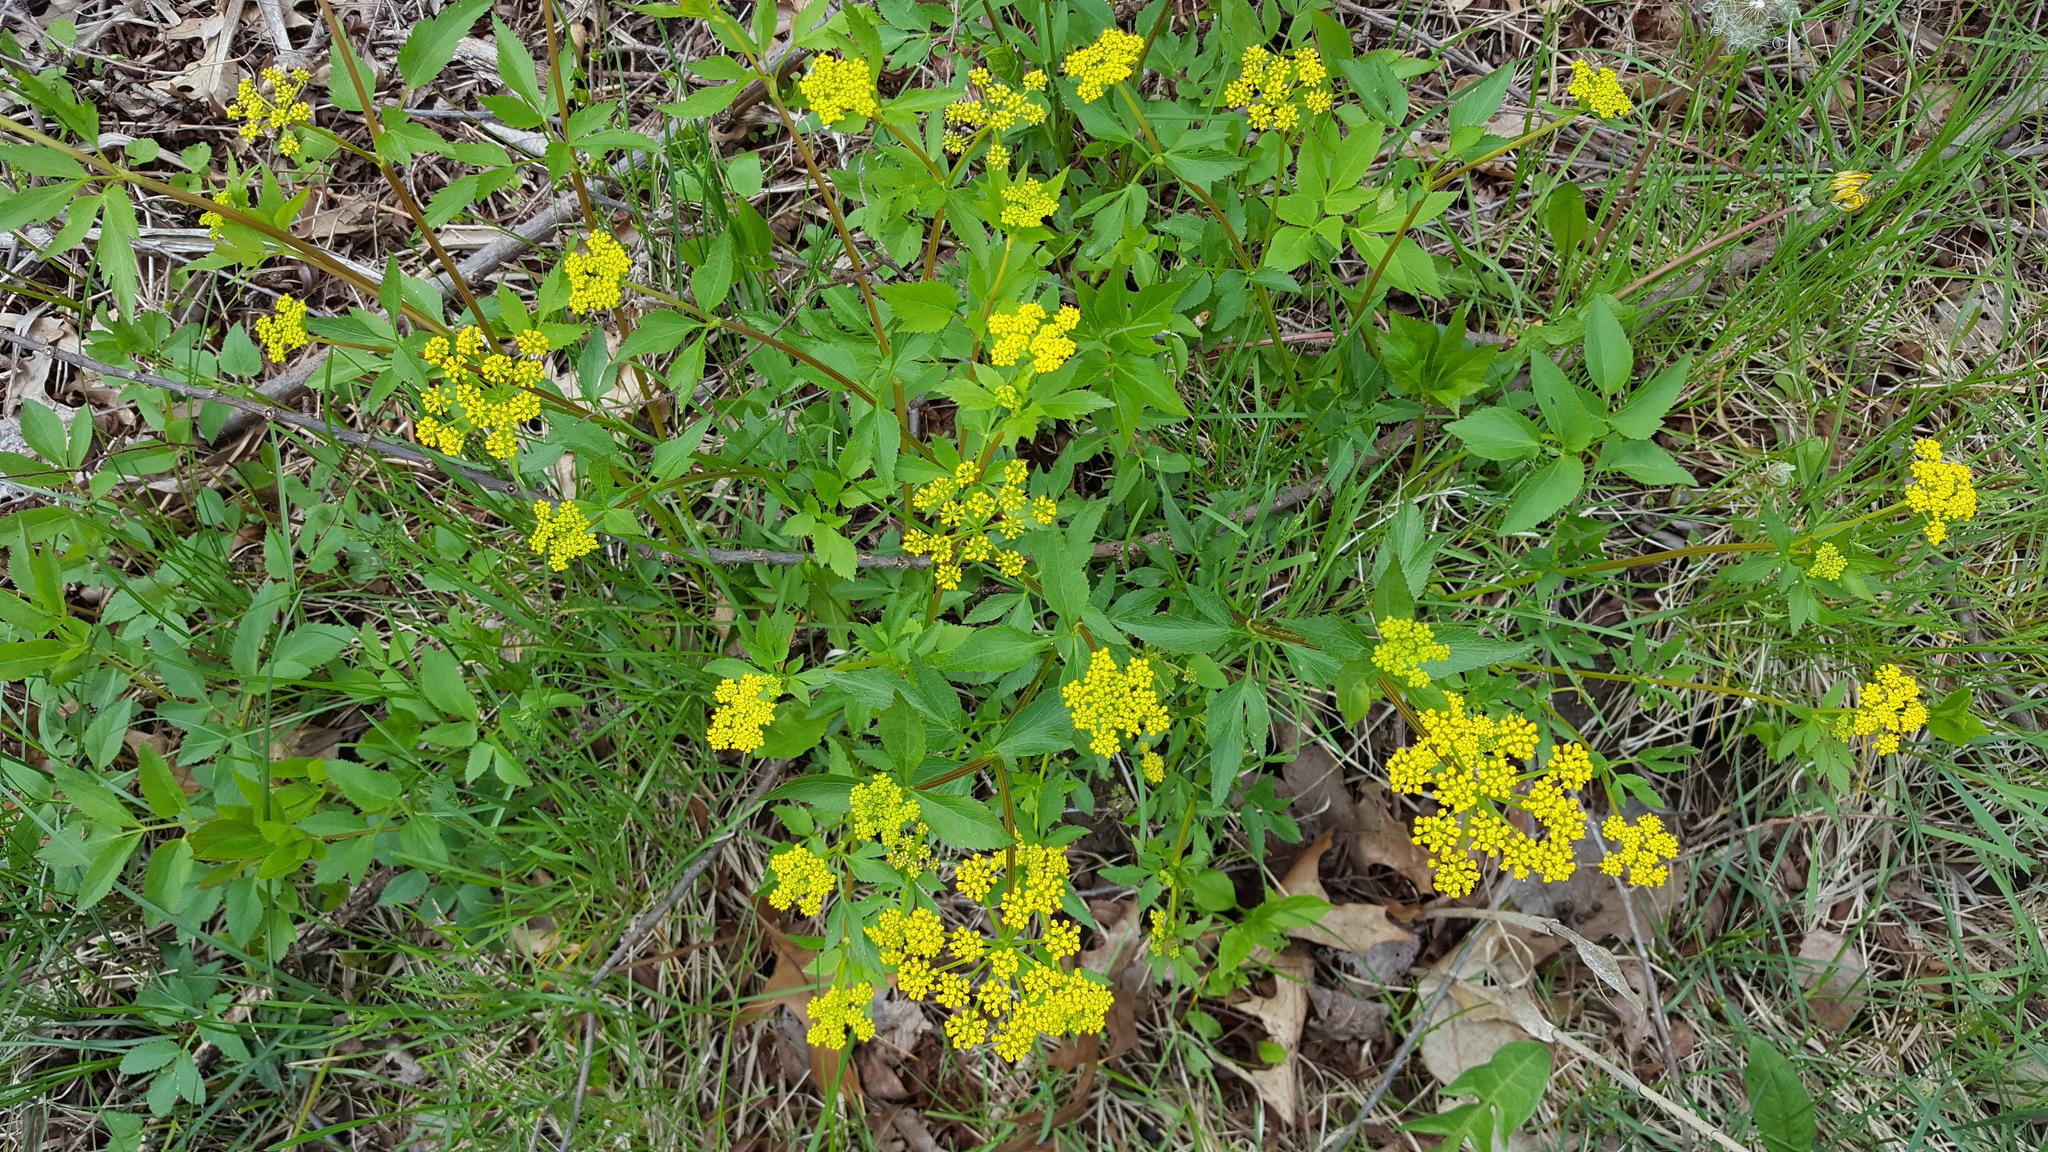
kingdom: Plantae
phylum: Tracheophyta
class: Magnoliopsida
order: Apiales
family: Apiaceae
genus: Zizia
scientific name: Zizia aurea
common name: Golden alexanders
